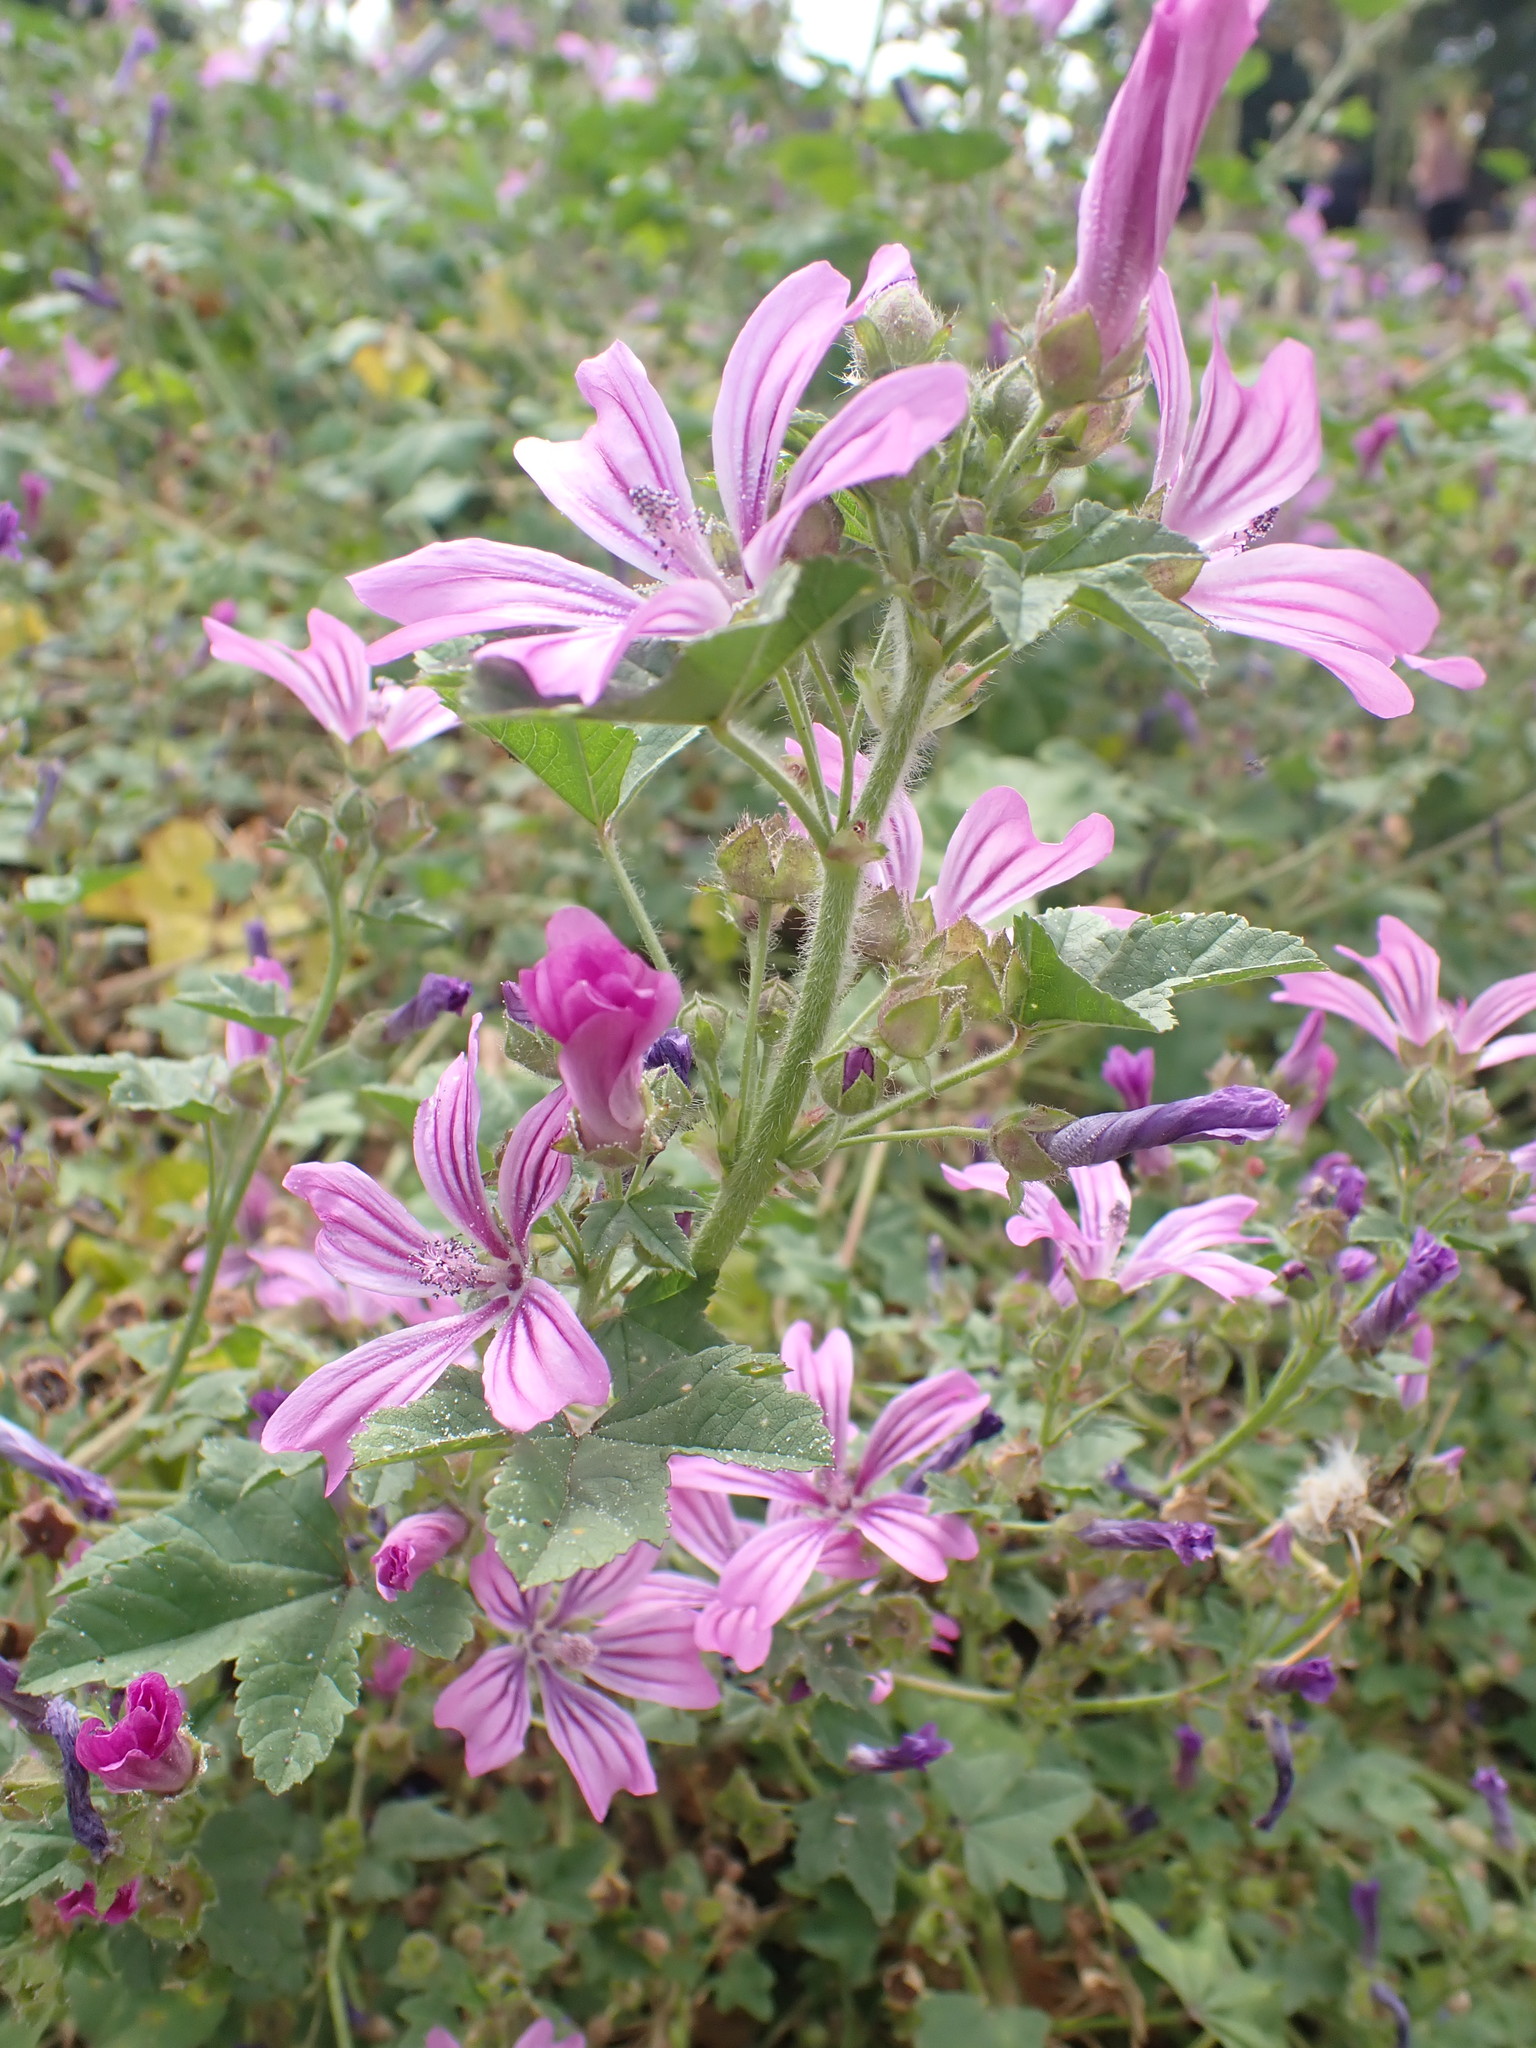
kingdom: Plantae
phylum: Tracheophyta
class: Magnoliopsida
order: Malvales
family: Malvaceae
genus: Malva
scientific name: Malva sylvestris
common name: Common mallow
